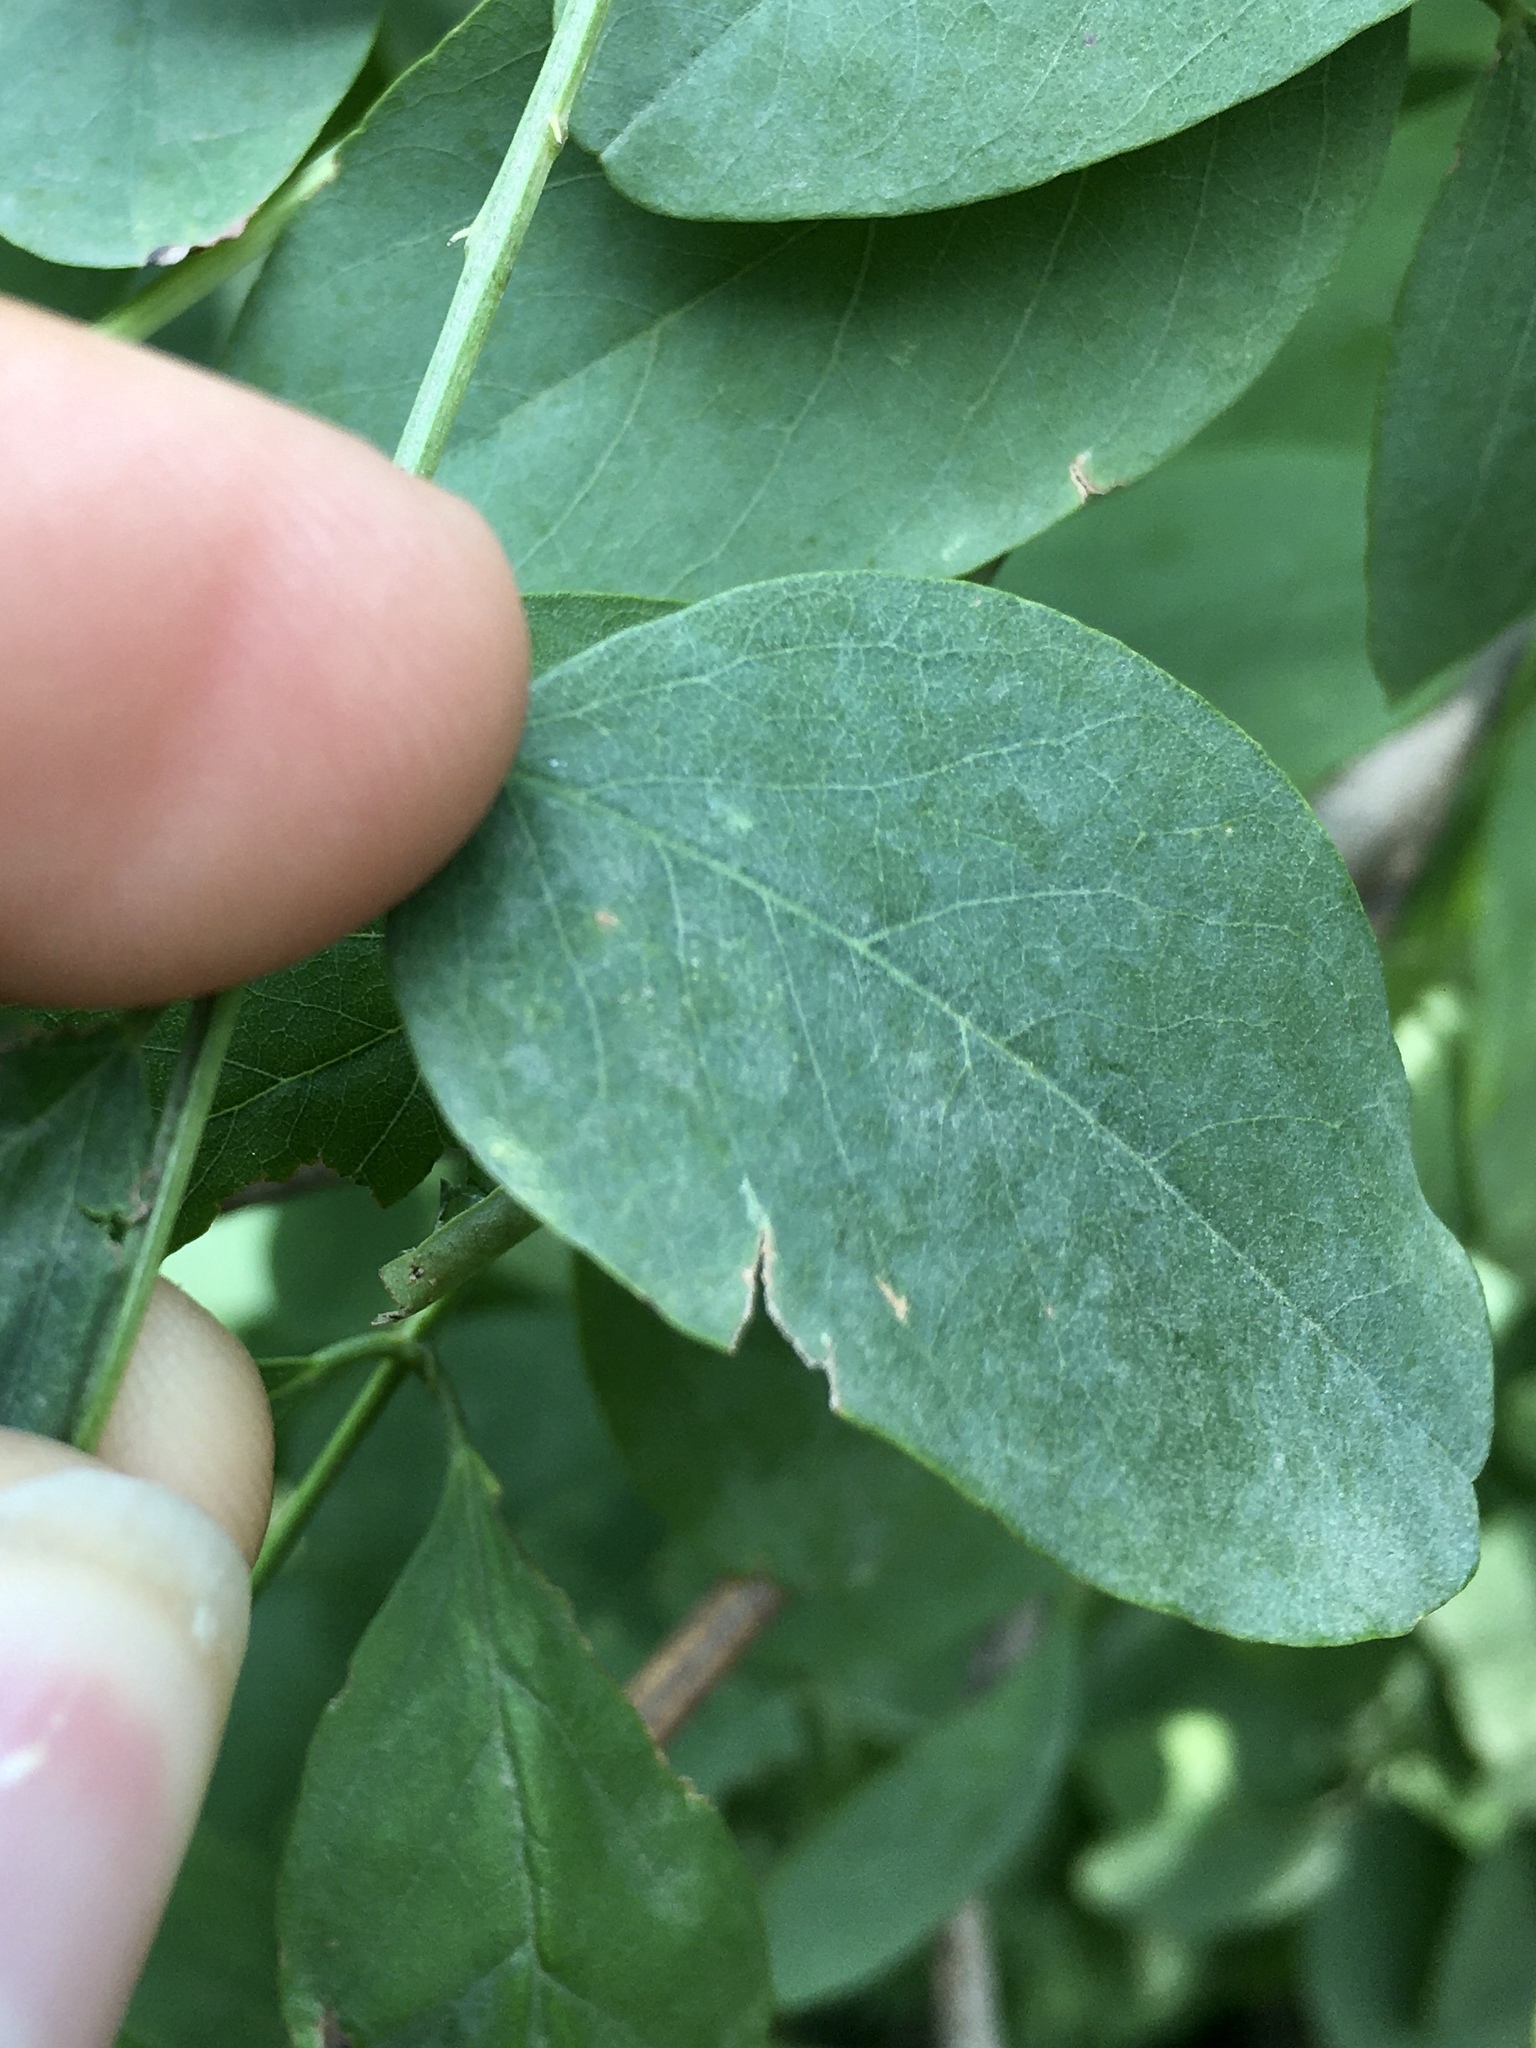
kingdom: Animalia
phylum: Arthropoda
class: Insecta
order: Lepidoptera
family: Gracillariidae
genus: Macrosaccus
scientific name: Macrosaccus robiniella
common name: Leaf blotch miner moth
